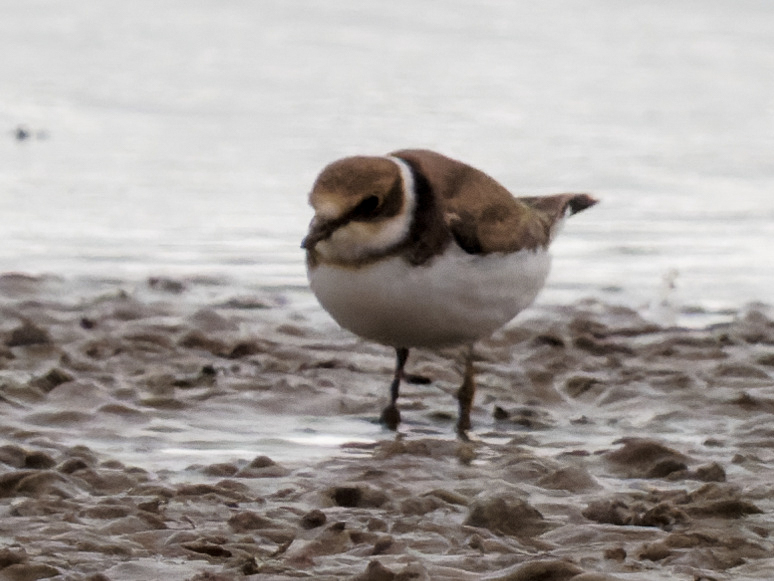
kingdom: Animalia
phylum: Chordata
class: Aves
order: Charadriiformes
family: Charadriidae
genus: Charadrius
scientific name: Charadrius hiaticula
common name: Common ringed plover
